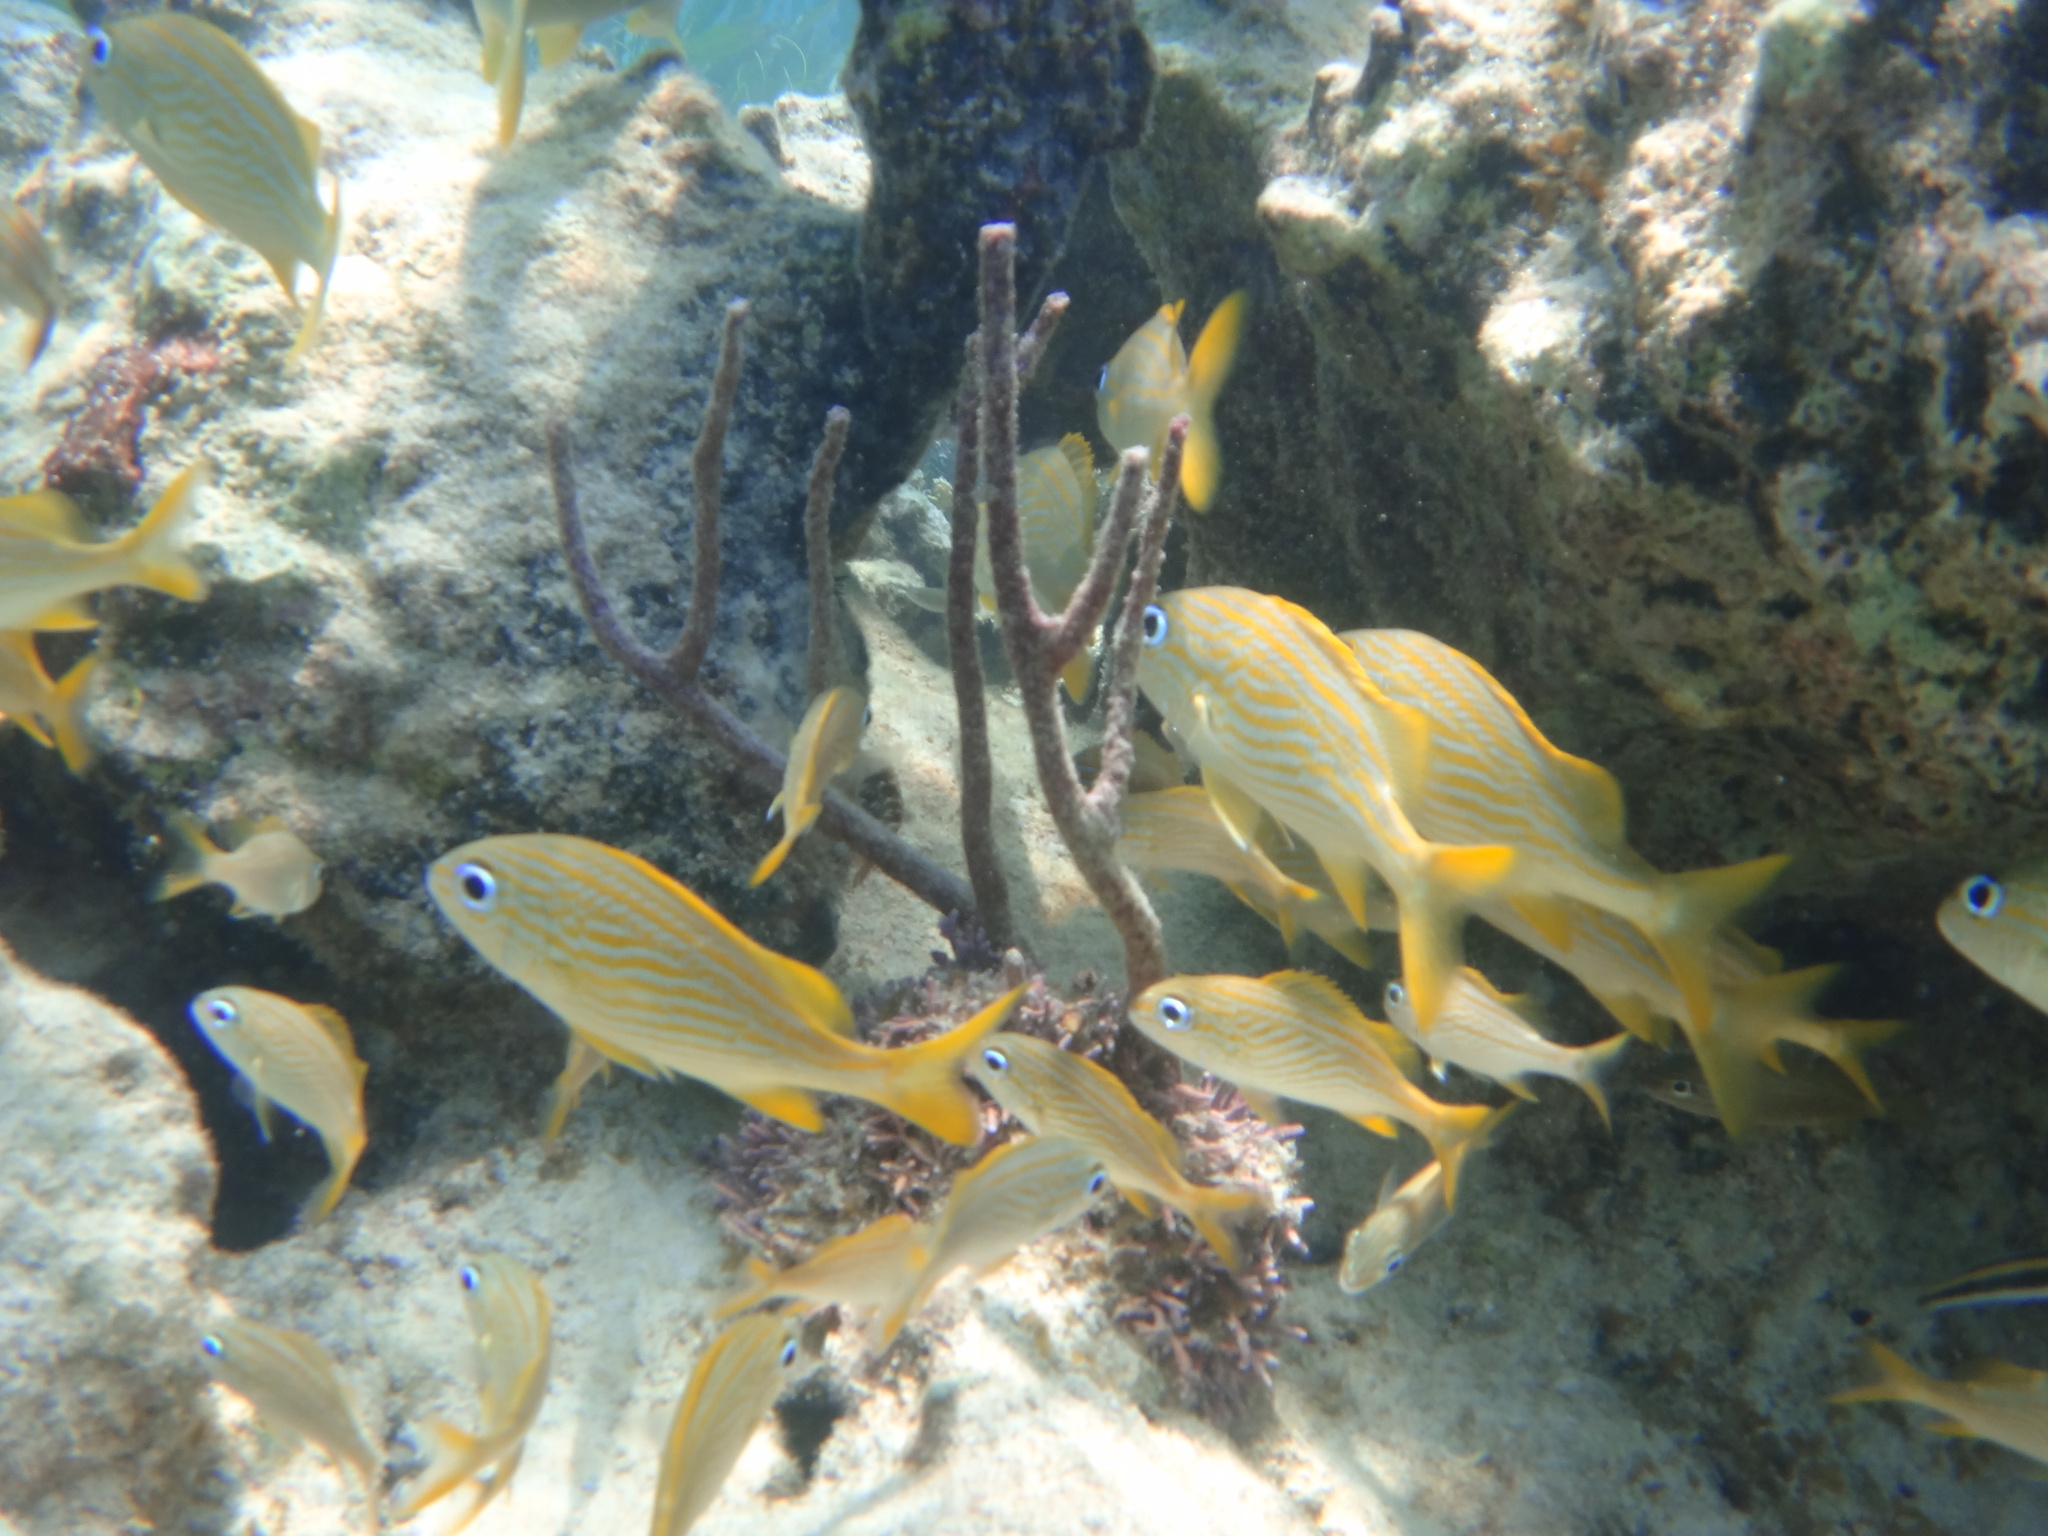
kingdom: Animalia
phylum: Chordata
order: Perciformes
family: Haemulidae
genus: Haemulon
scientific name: Haemulon flavolineatum
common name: French grunt
